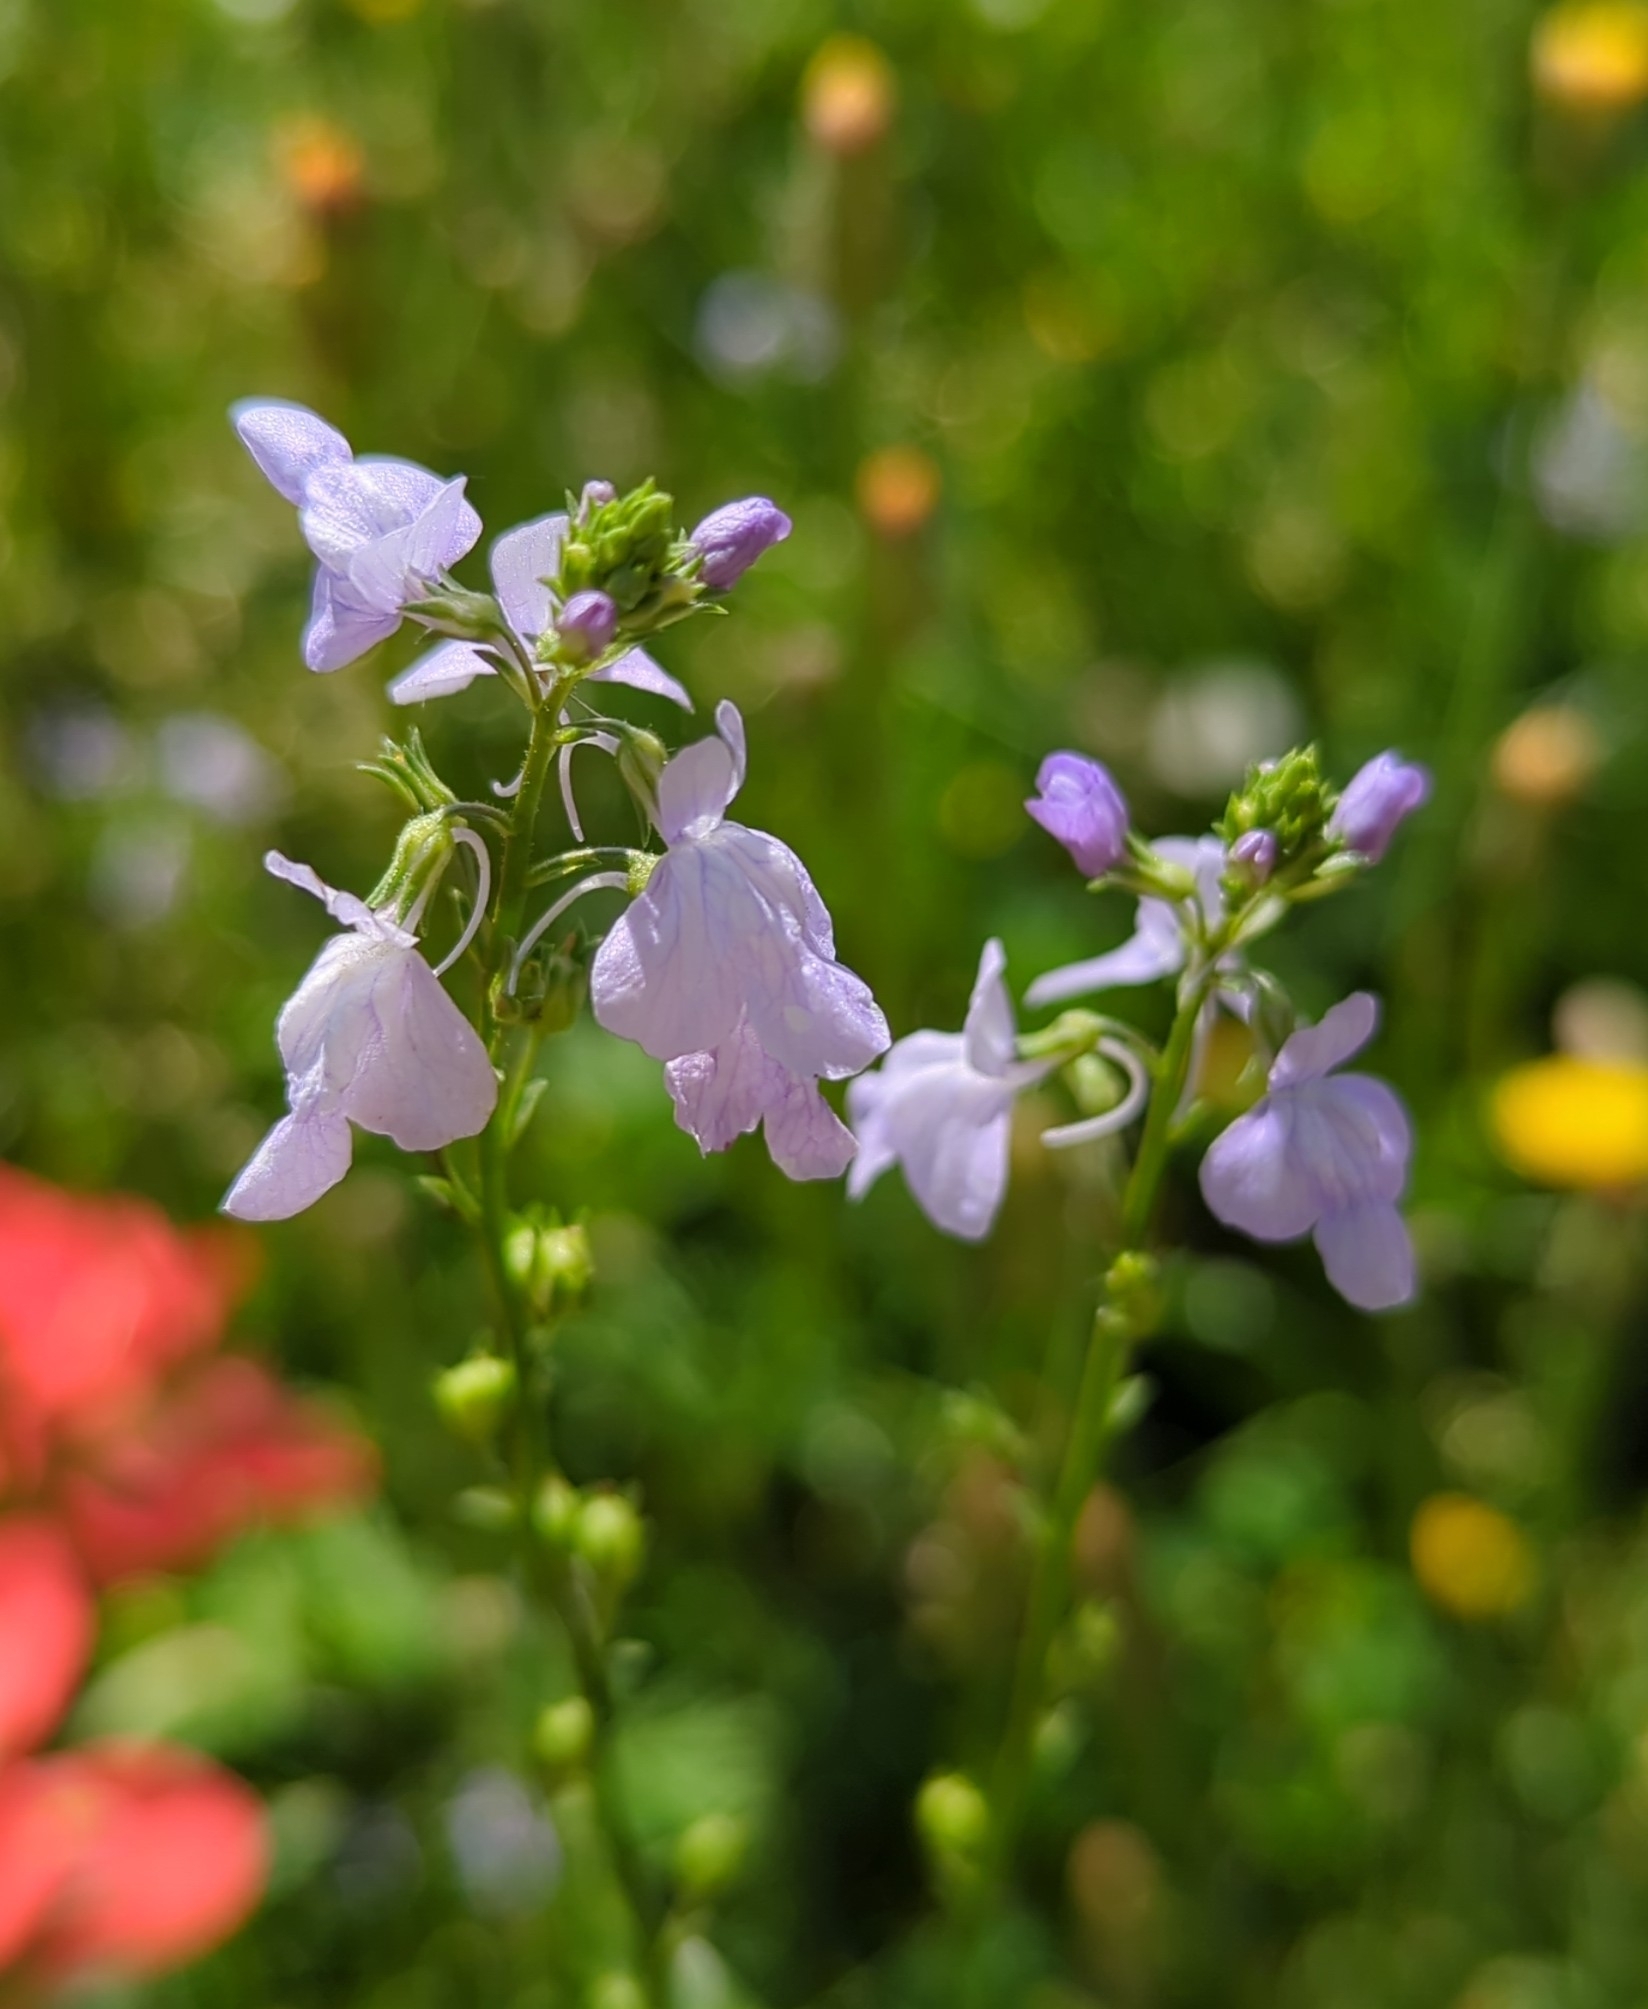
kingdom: Plantae
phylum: Tracheophyta
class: Magnoliopsida
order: Lamiales
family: Plantaginaceae
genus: Nuttallanthus
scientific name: Nuttallanthus texanus
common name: Texas toadflax
